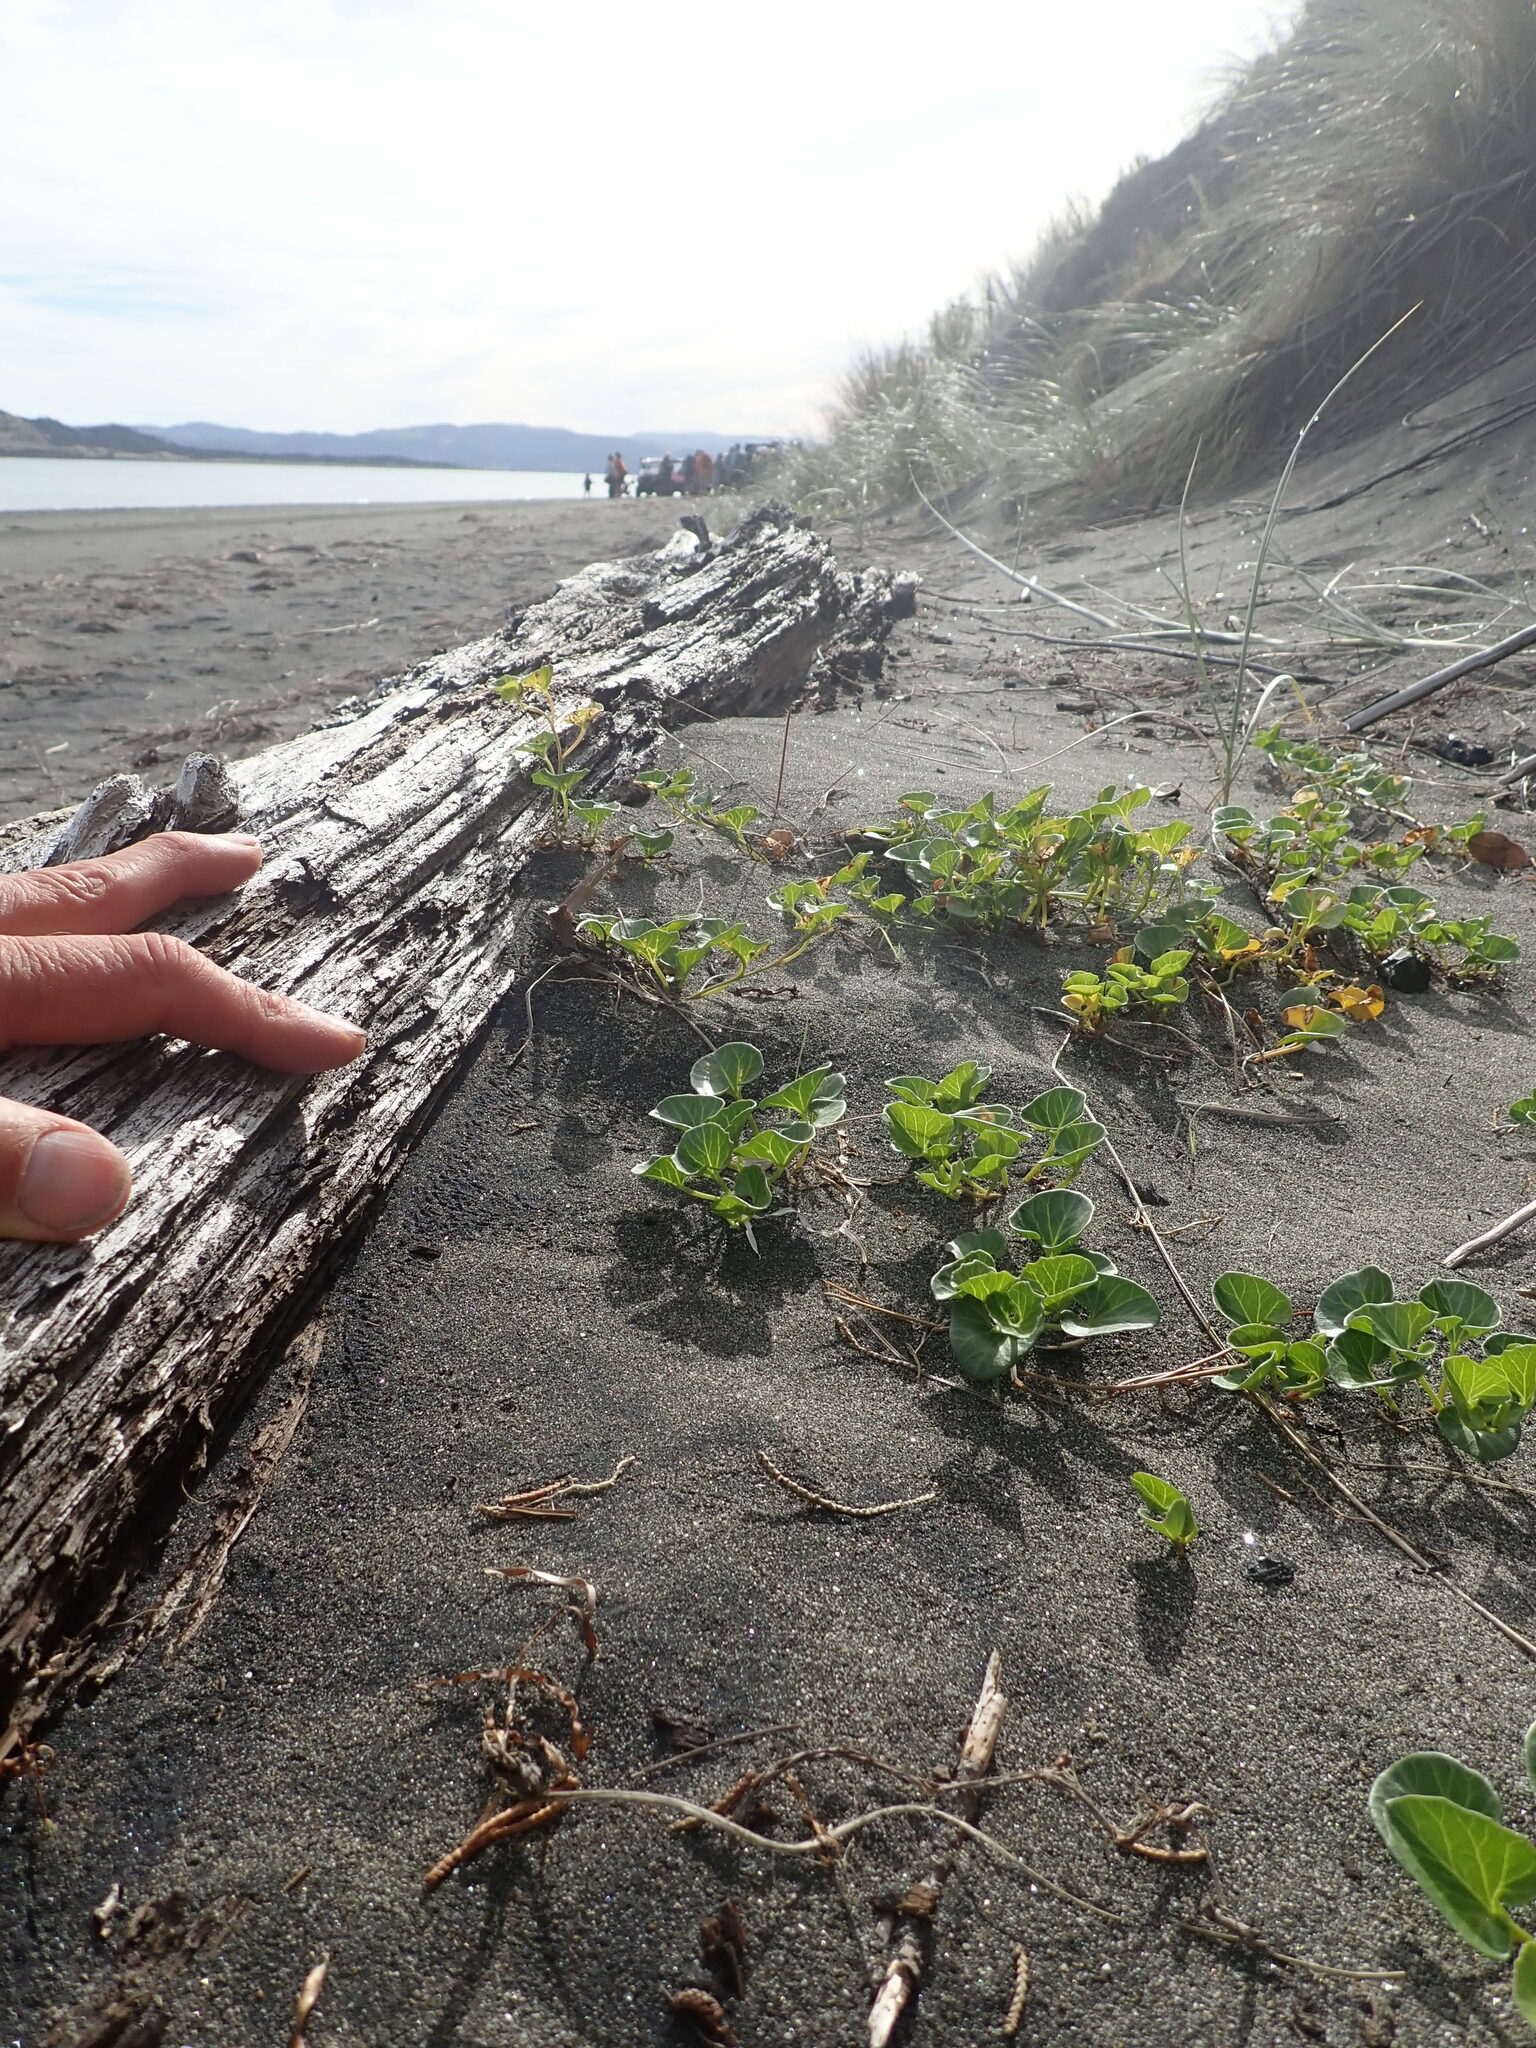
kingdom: Plantae
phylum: Tracheophyta
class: Magnoliopsida
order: Solanales
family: Convolvulaceae
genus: Calystegia
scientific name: Calystegia soldanella
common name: Sea bindweed
